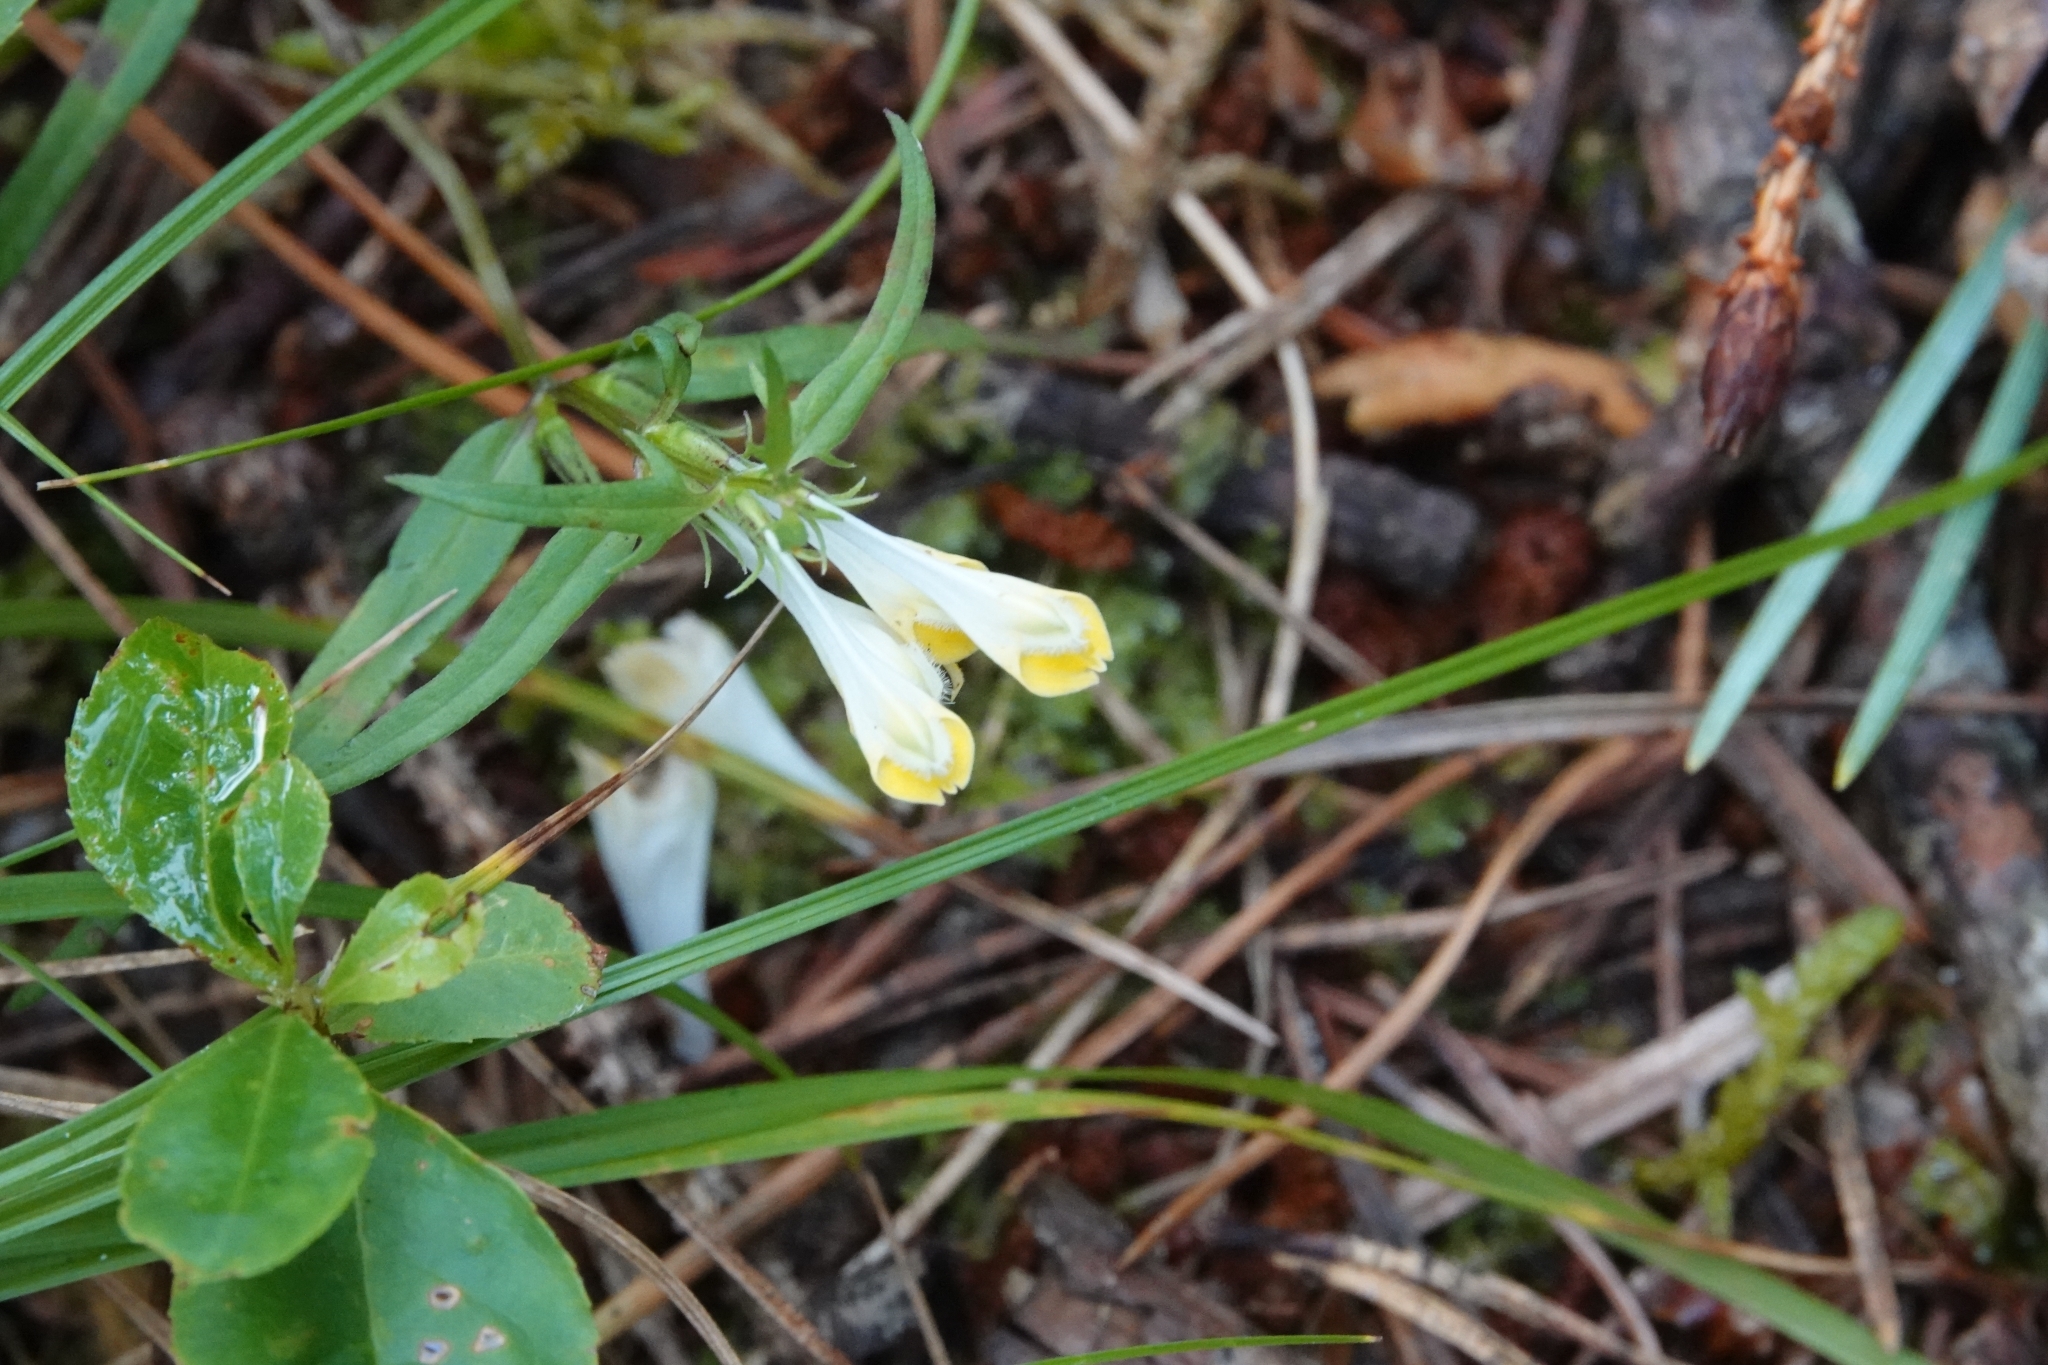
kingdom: Plantae
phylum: Tracheophyta
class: Magnoliopsida
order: Lamiales
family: Orobanchaceae
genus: Melampyrum
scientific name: Melampyrum pratense
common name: Common cow-wheat
